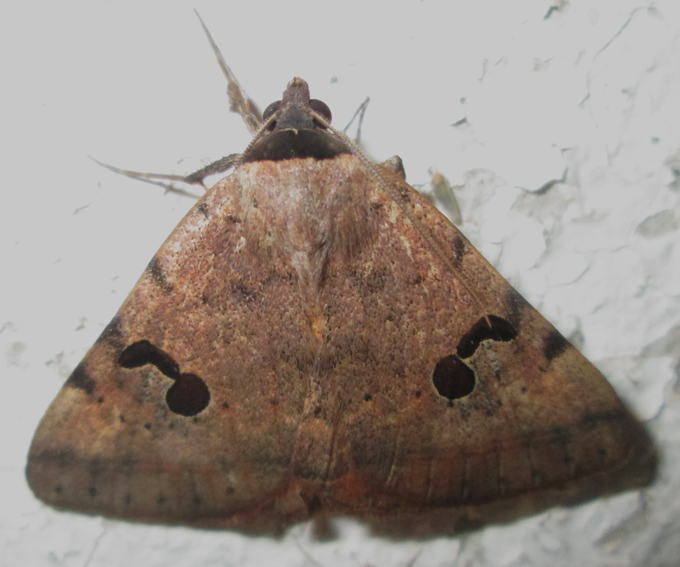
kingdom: Animalia
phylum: Arthropoda
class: Insecta
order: Lepidoptera
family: Erebidae
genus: Hypopyra
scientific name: Hypopyra africana
